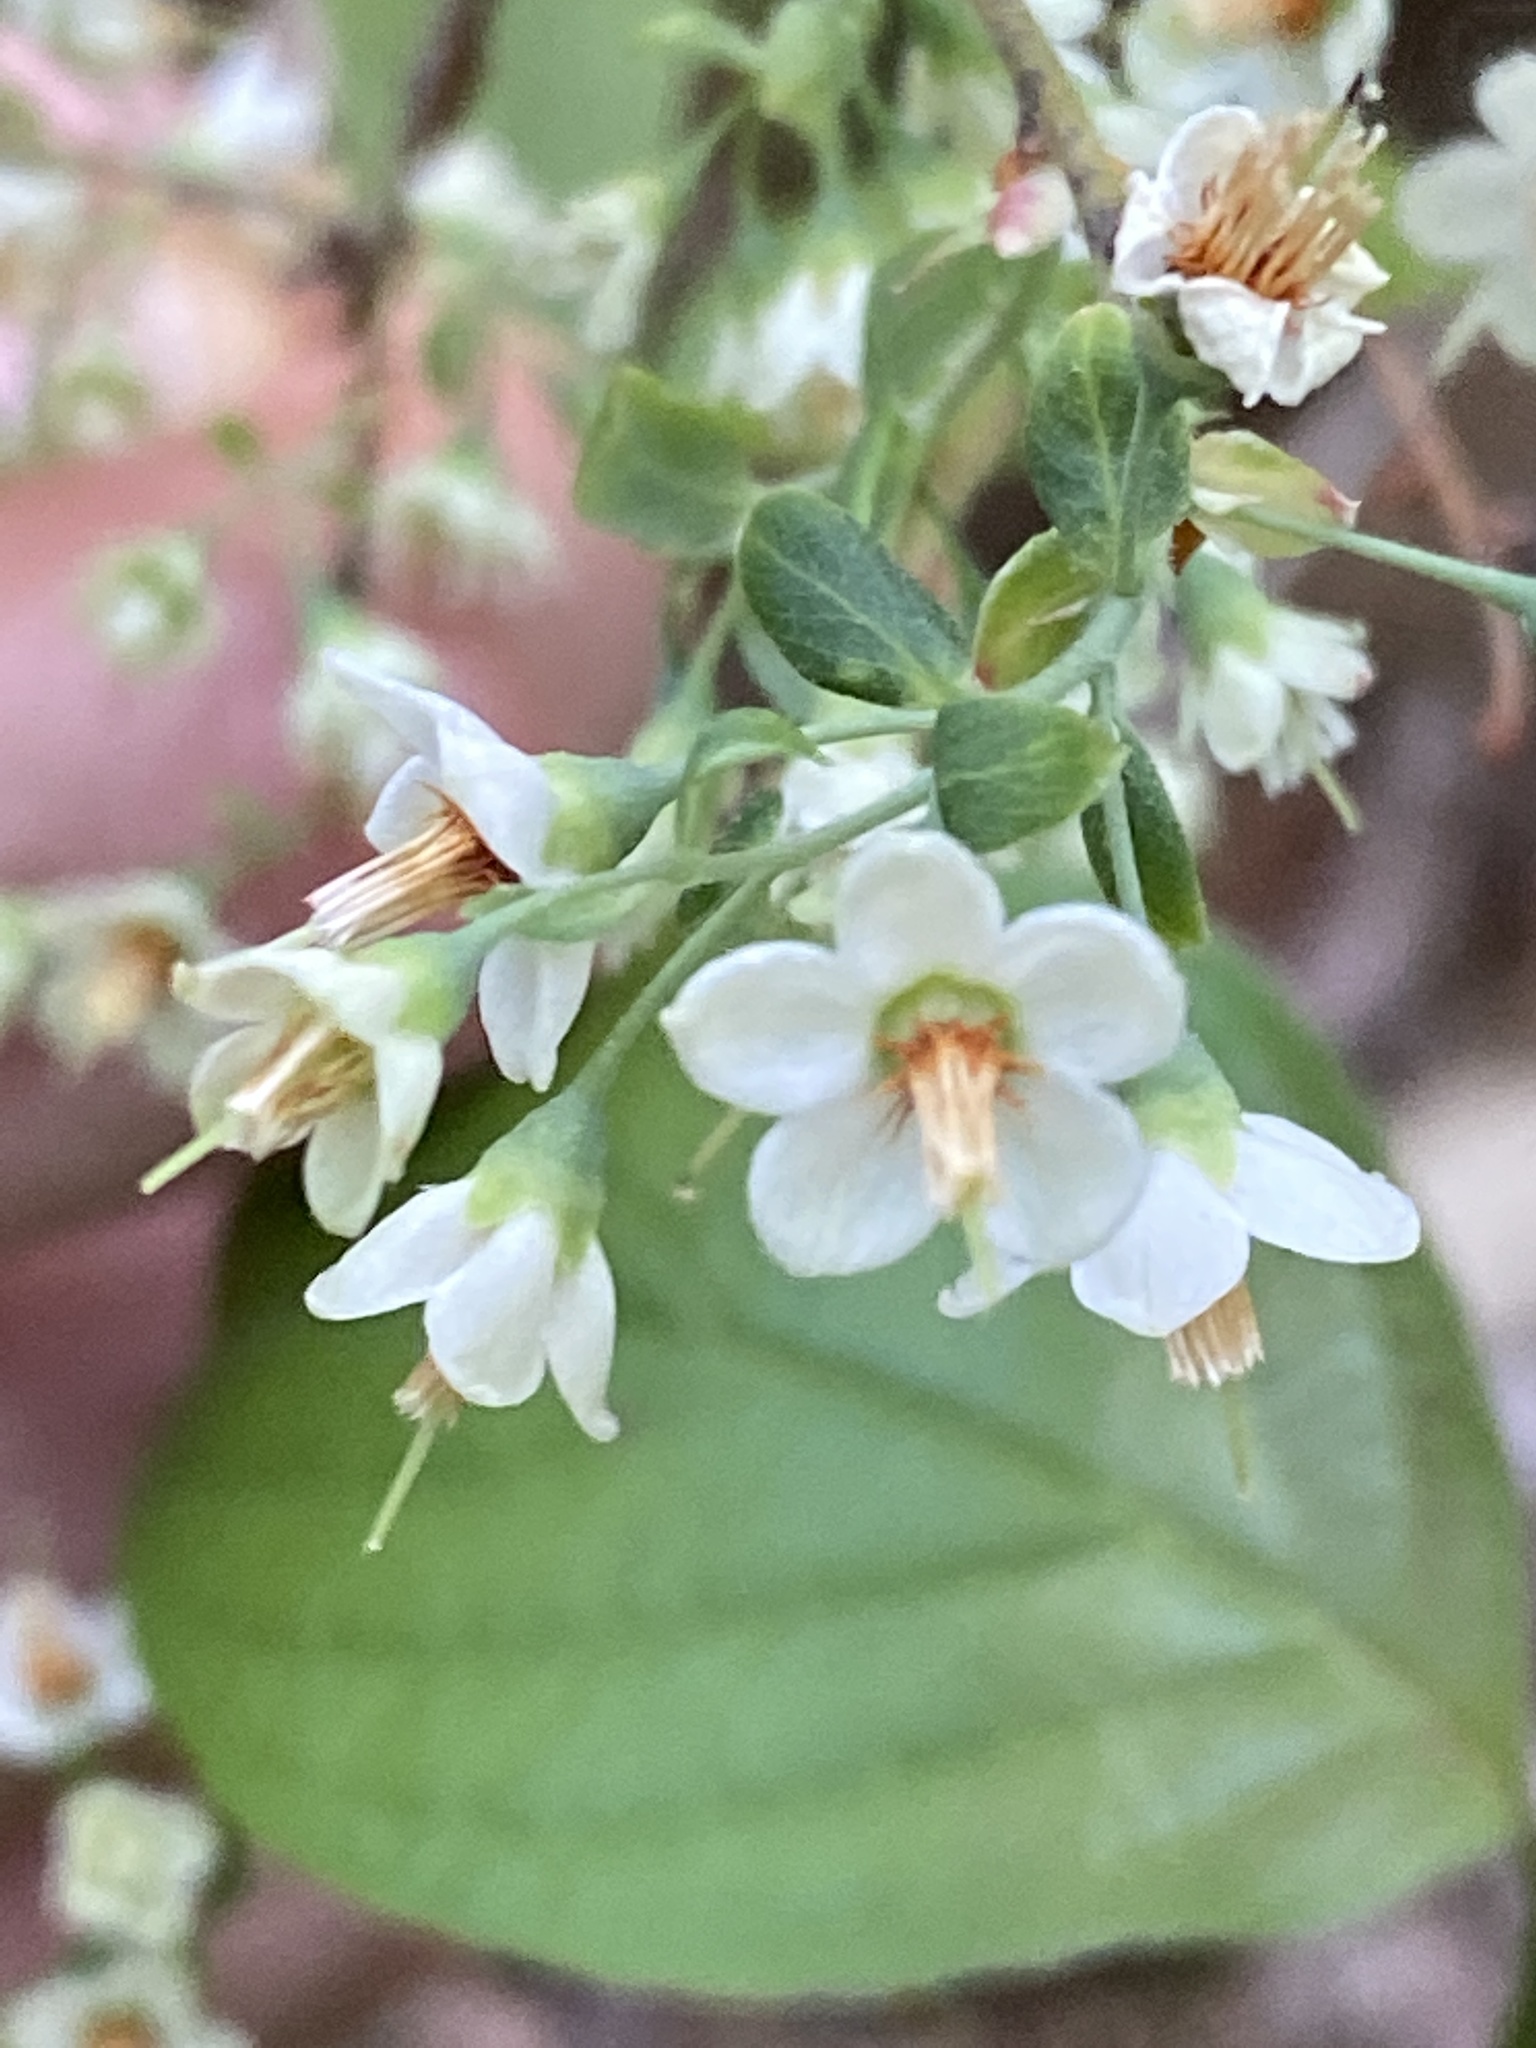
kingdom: Plantae
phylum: Tracheophyta
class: Magnoliopsida
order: Ericales
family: Ericaceae
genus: Vaccinium
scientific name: Vaccinium stamineum
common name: Deerberry
